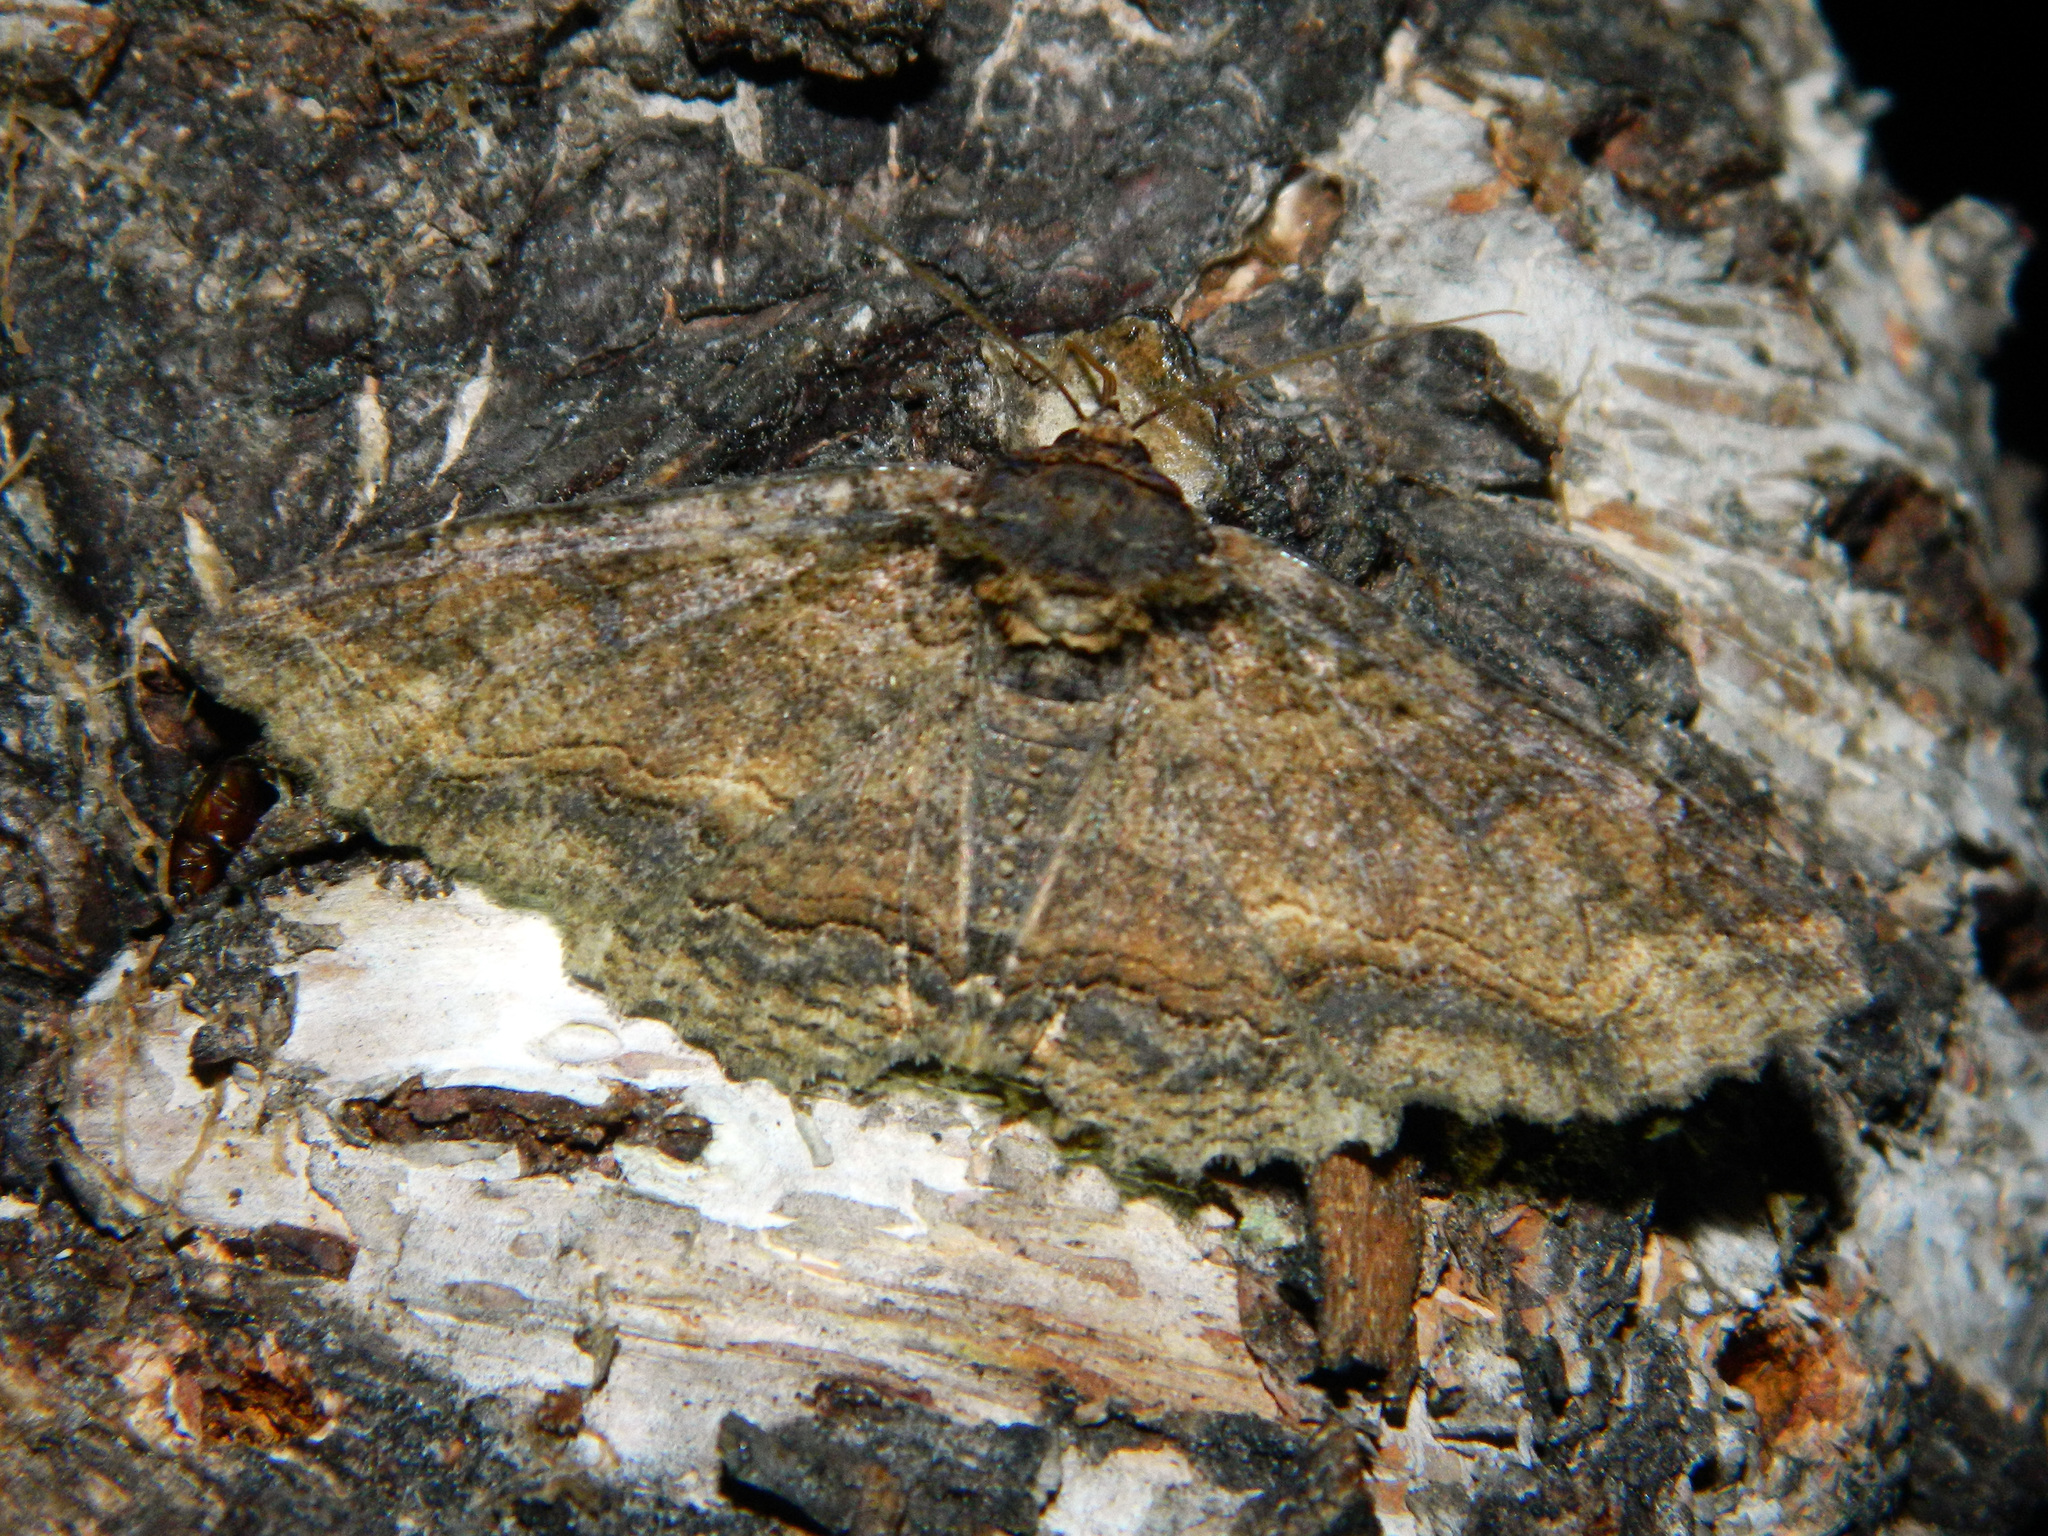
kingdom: Animalia
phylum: Arthropoda
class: Insecta
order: Lepidoptera
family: Erebidae
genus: Zale
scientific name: Zale minerea
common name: Colorful zale moth
